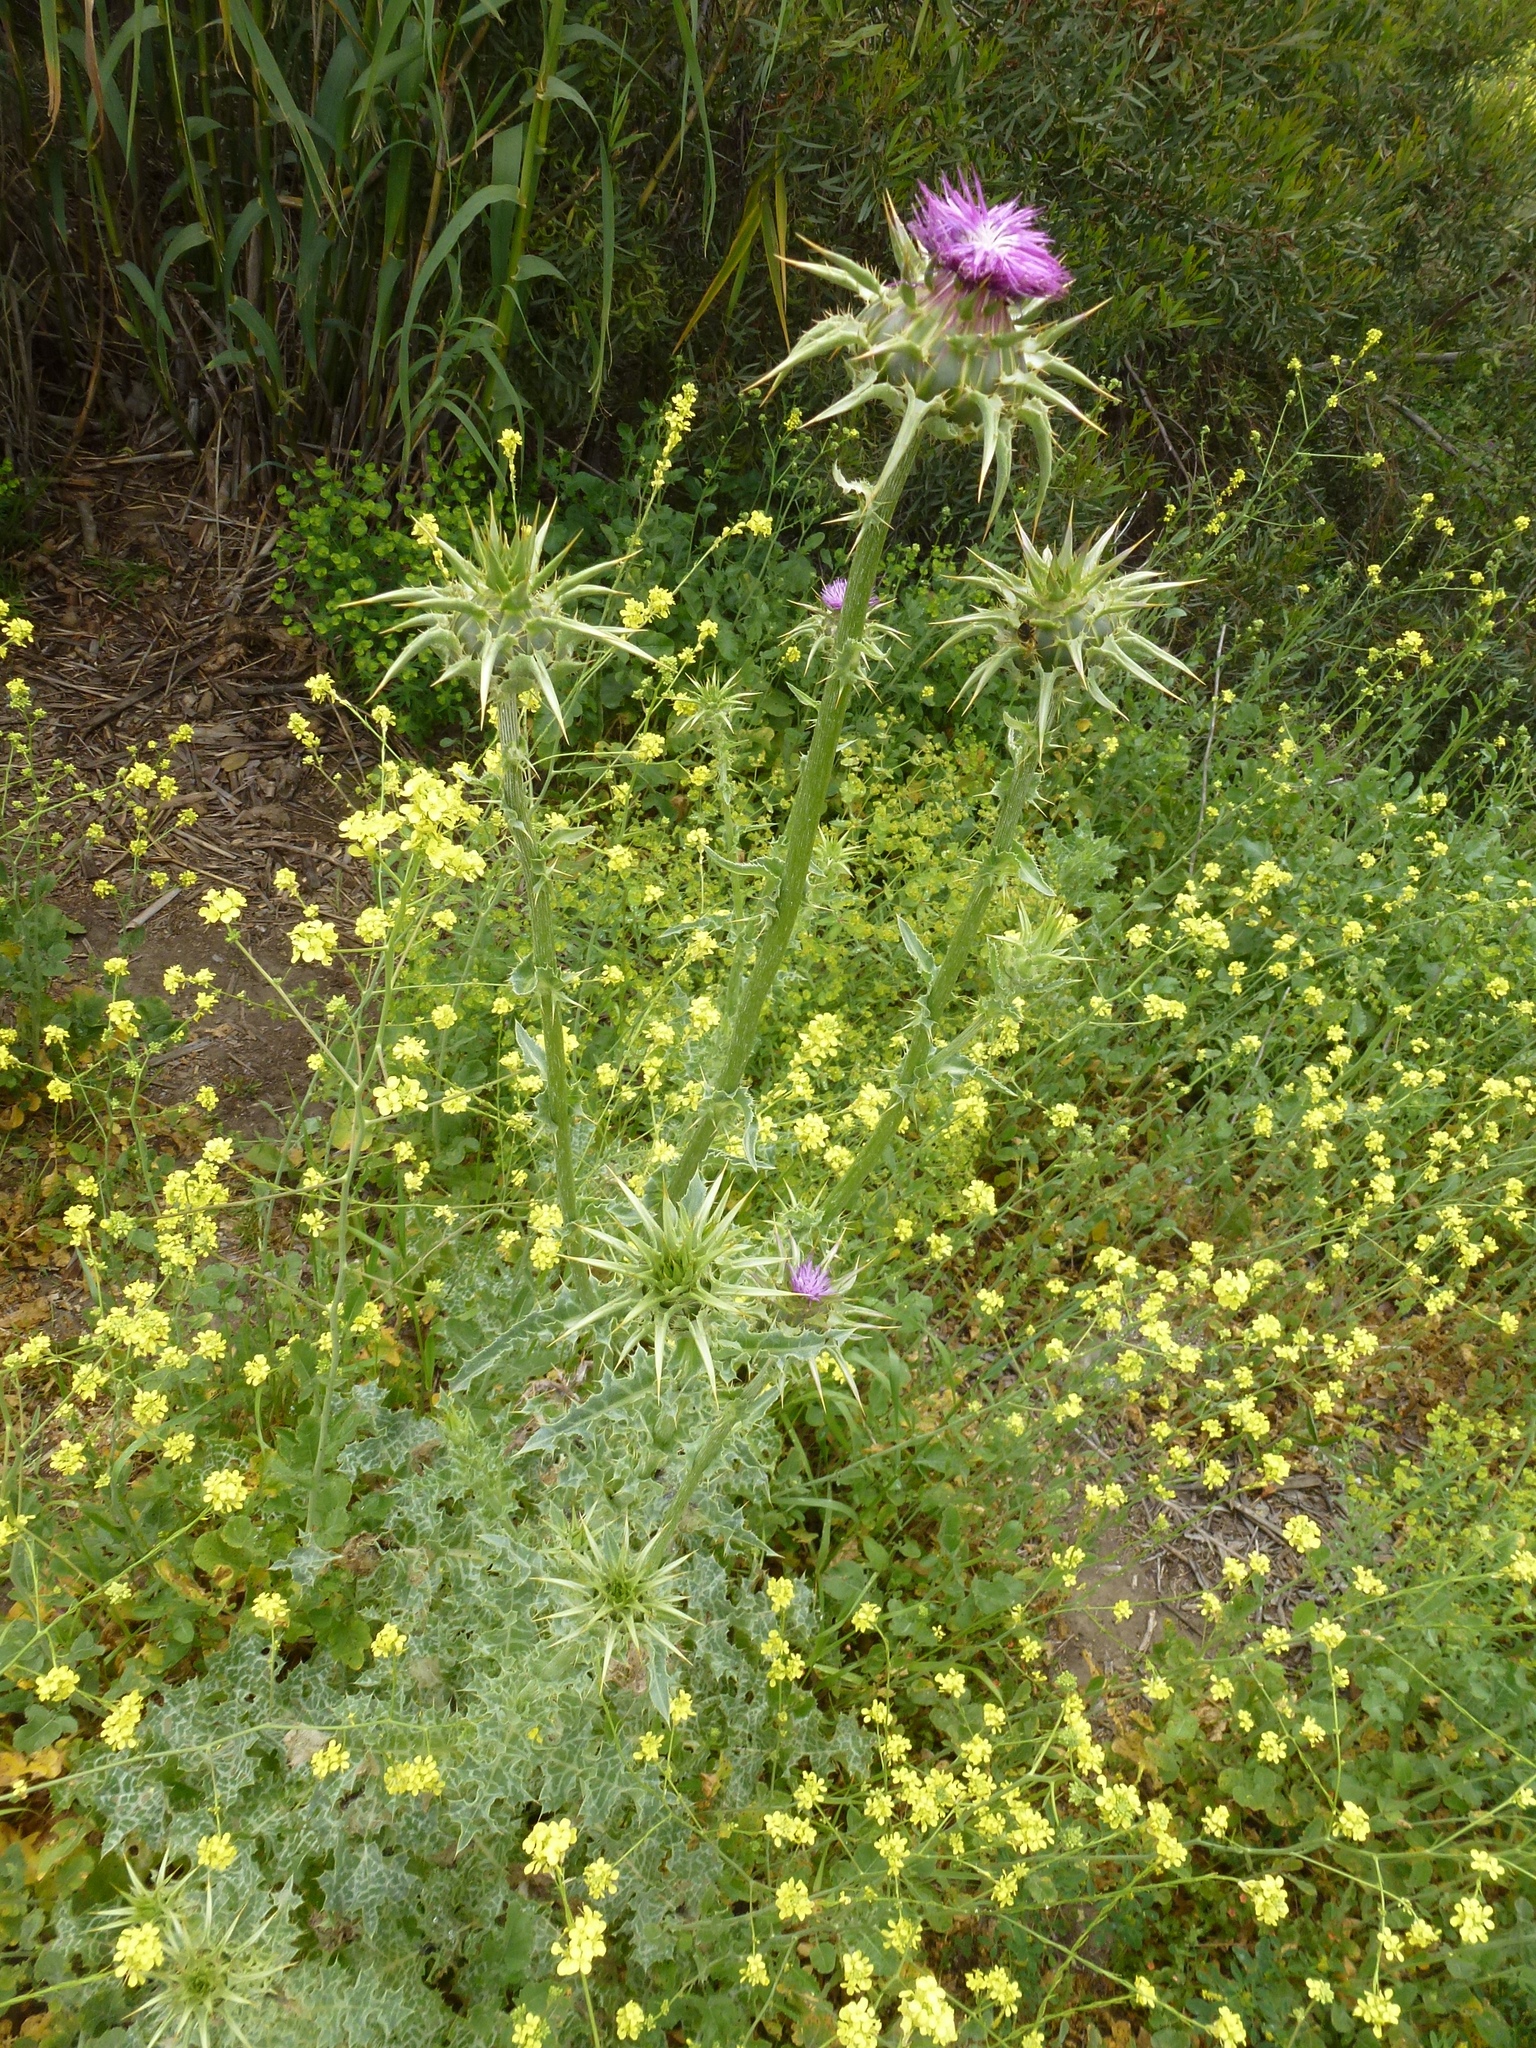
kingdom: Plantae
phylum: Tracheophyta
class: Magnoliopsida
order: Asterales
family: Asteraceae
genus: Silybum
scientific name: Silybum marianum
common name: Milk thistle
